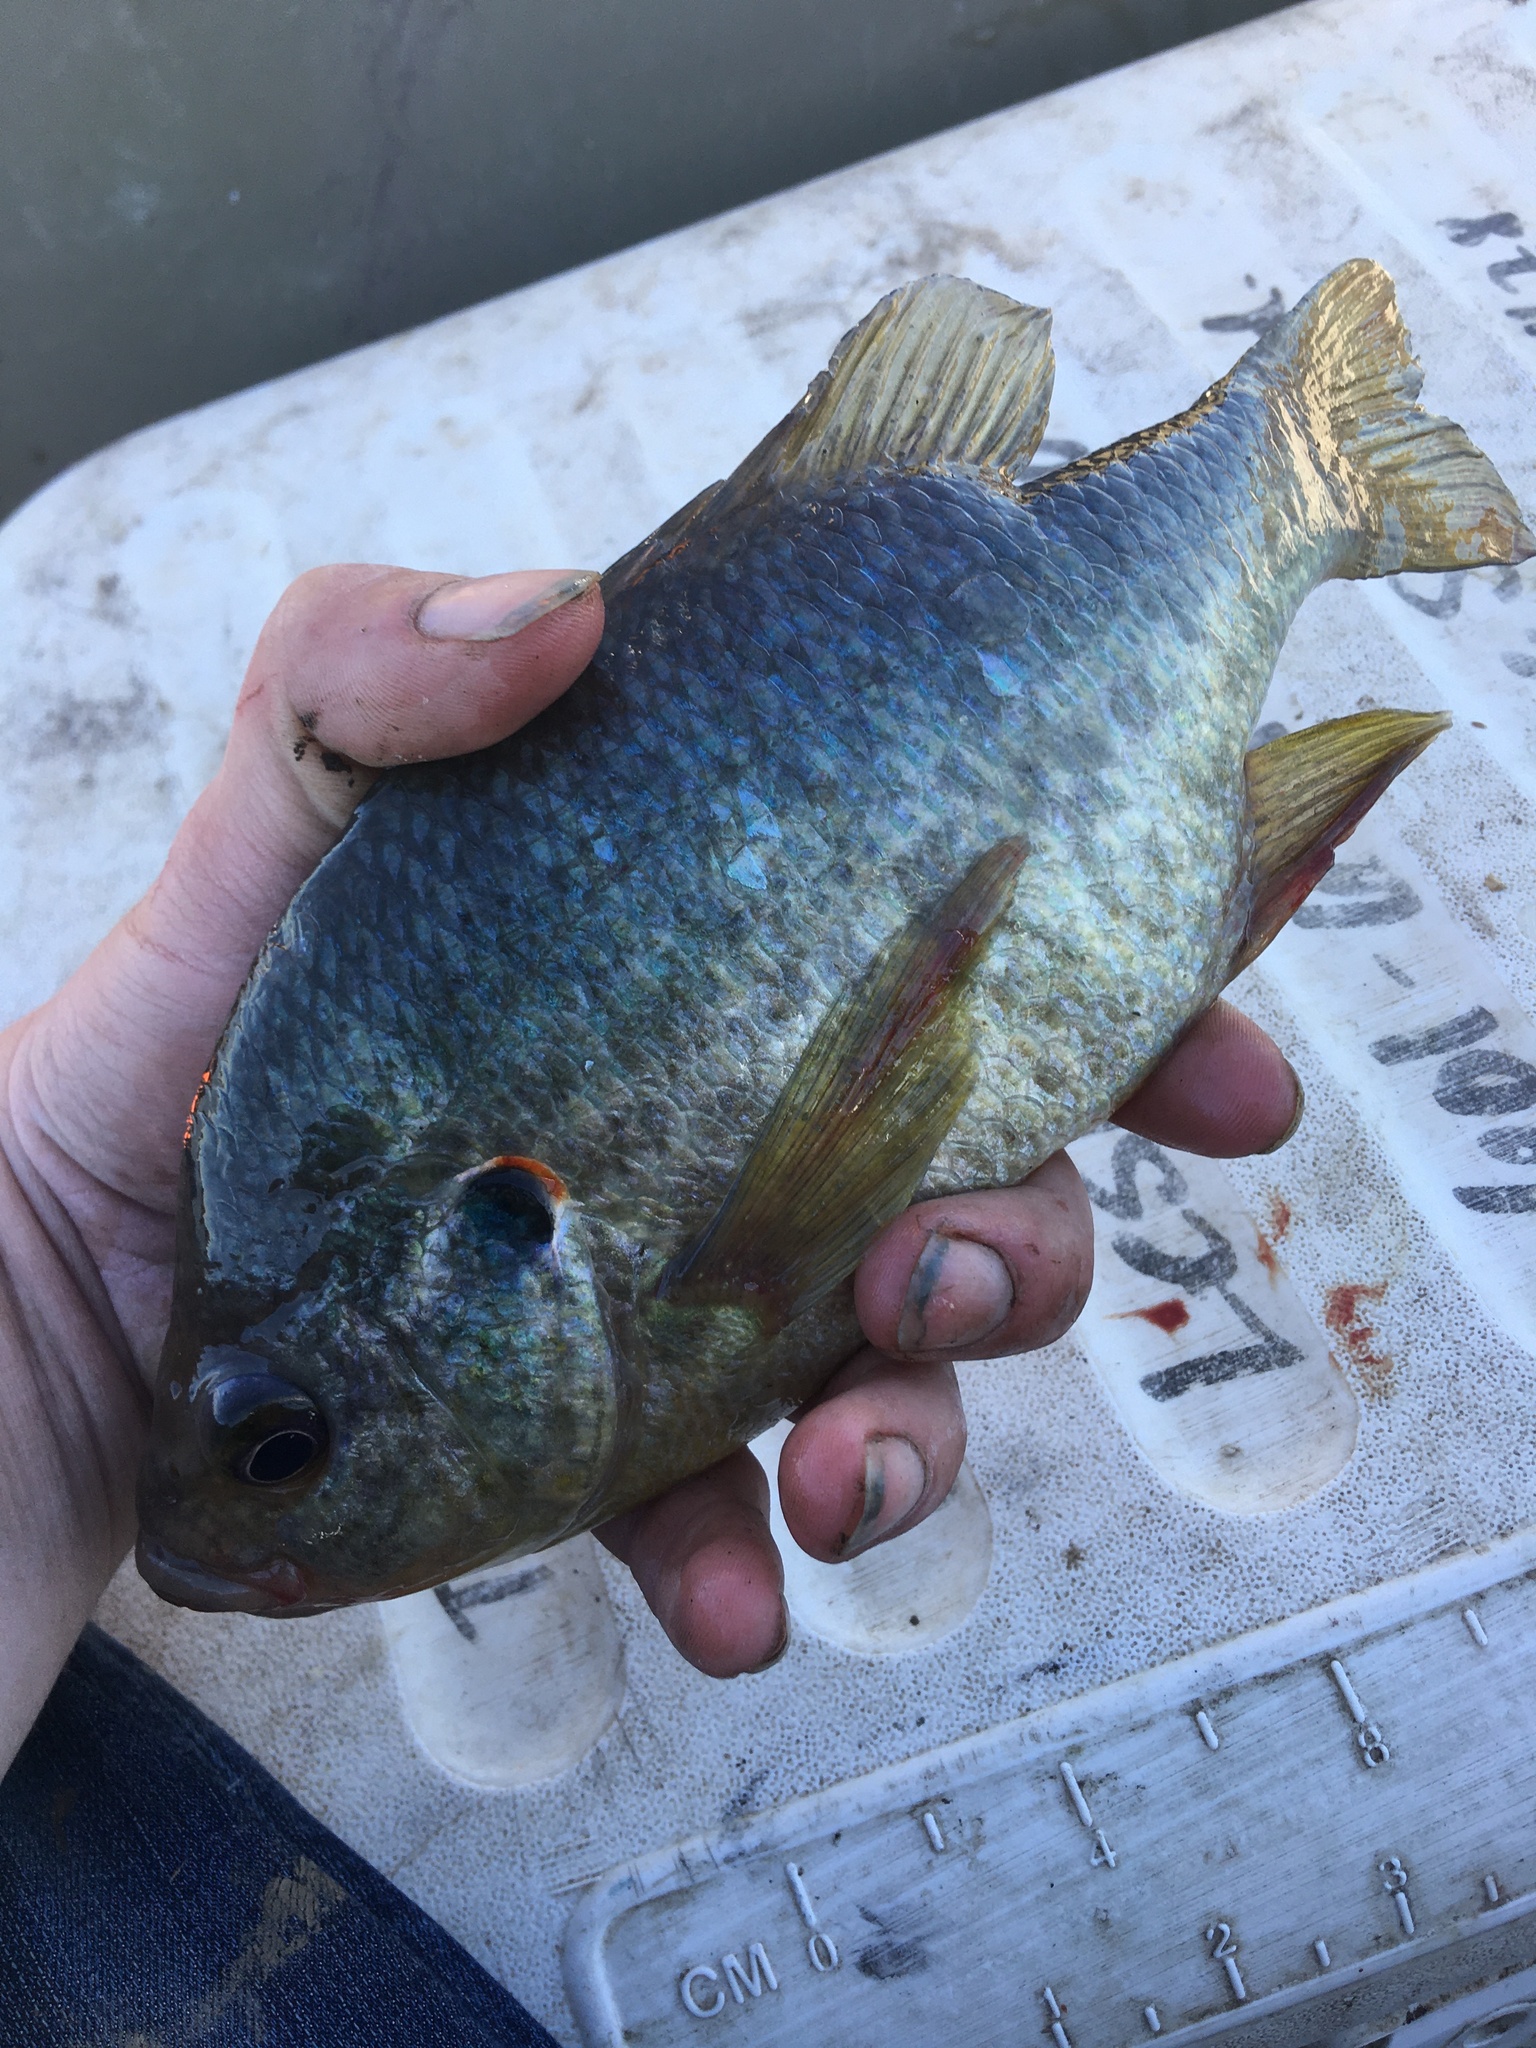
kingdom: Animalia
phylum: Chordata
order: Perciformes
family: Centrarchidae
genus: Lepomis
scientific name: Lepomis microlophus
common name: Redear sunfish
